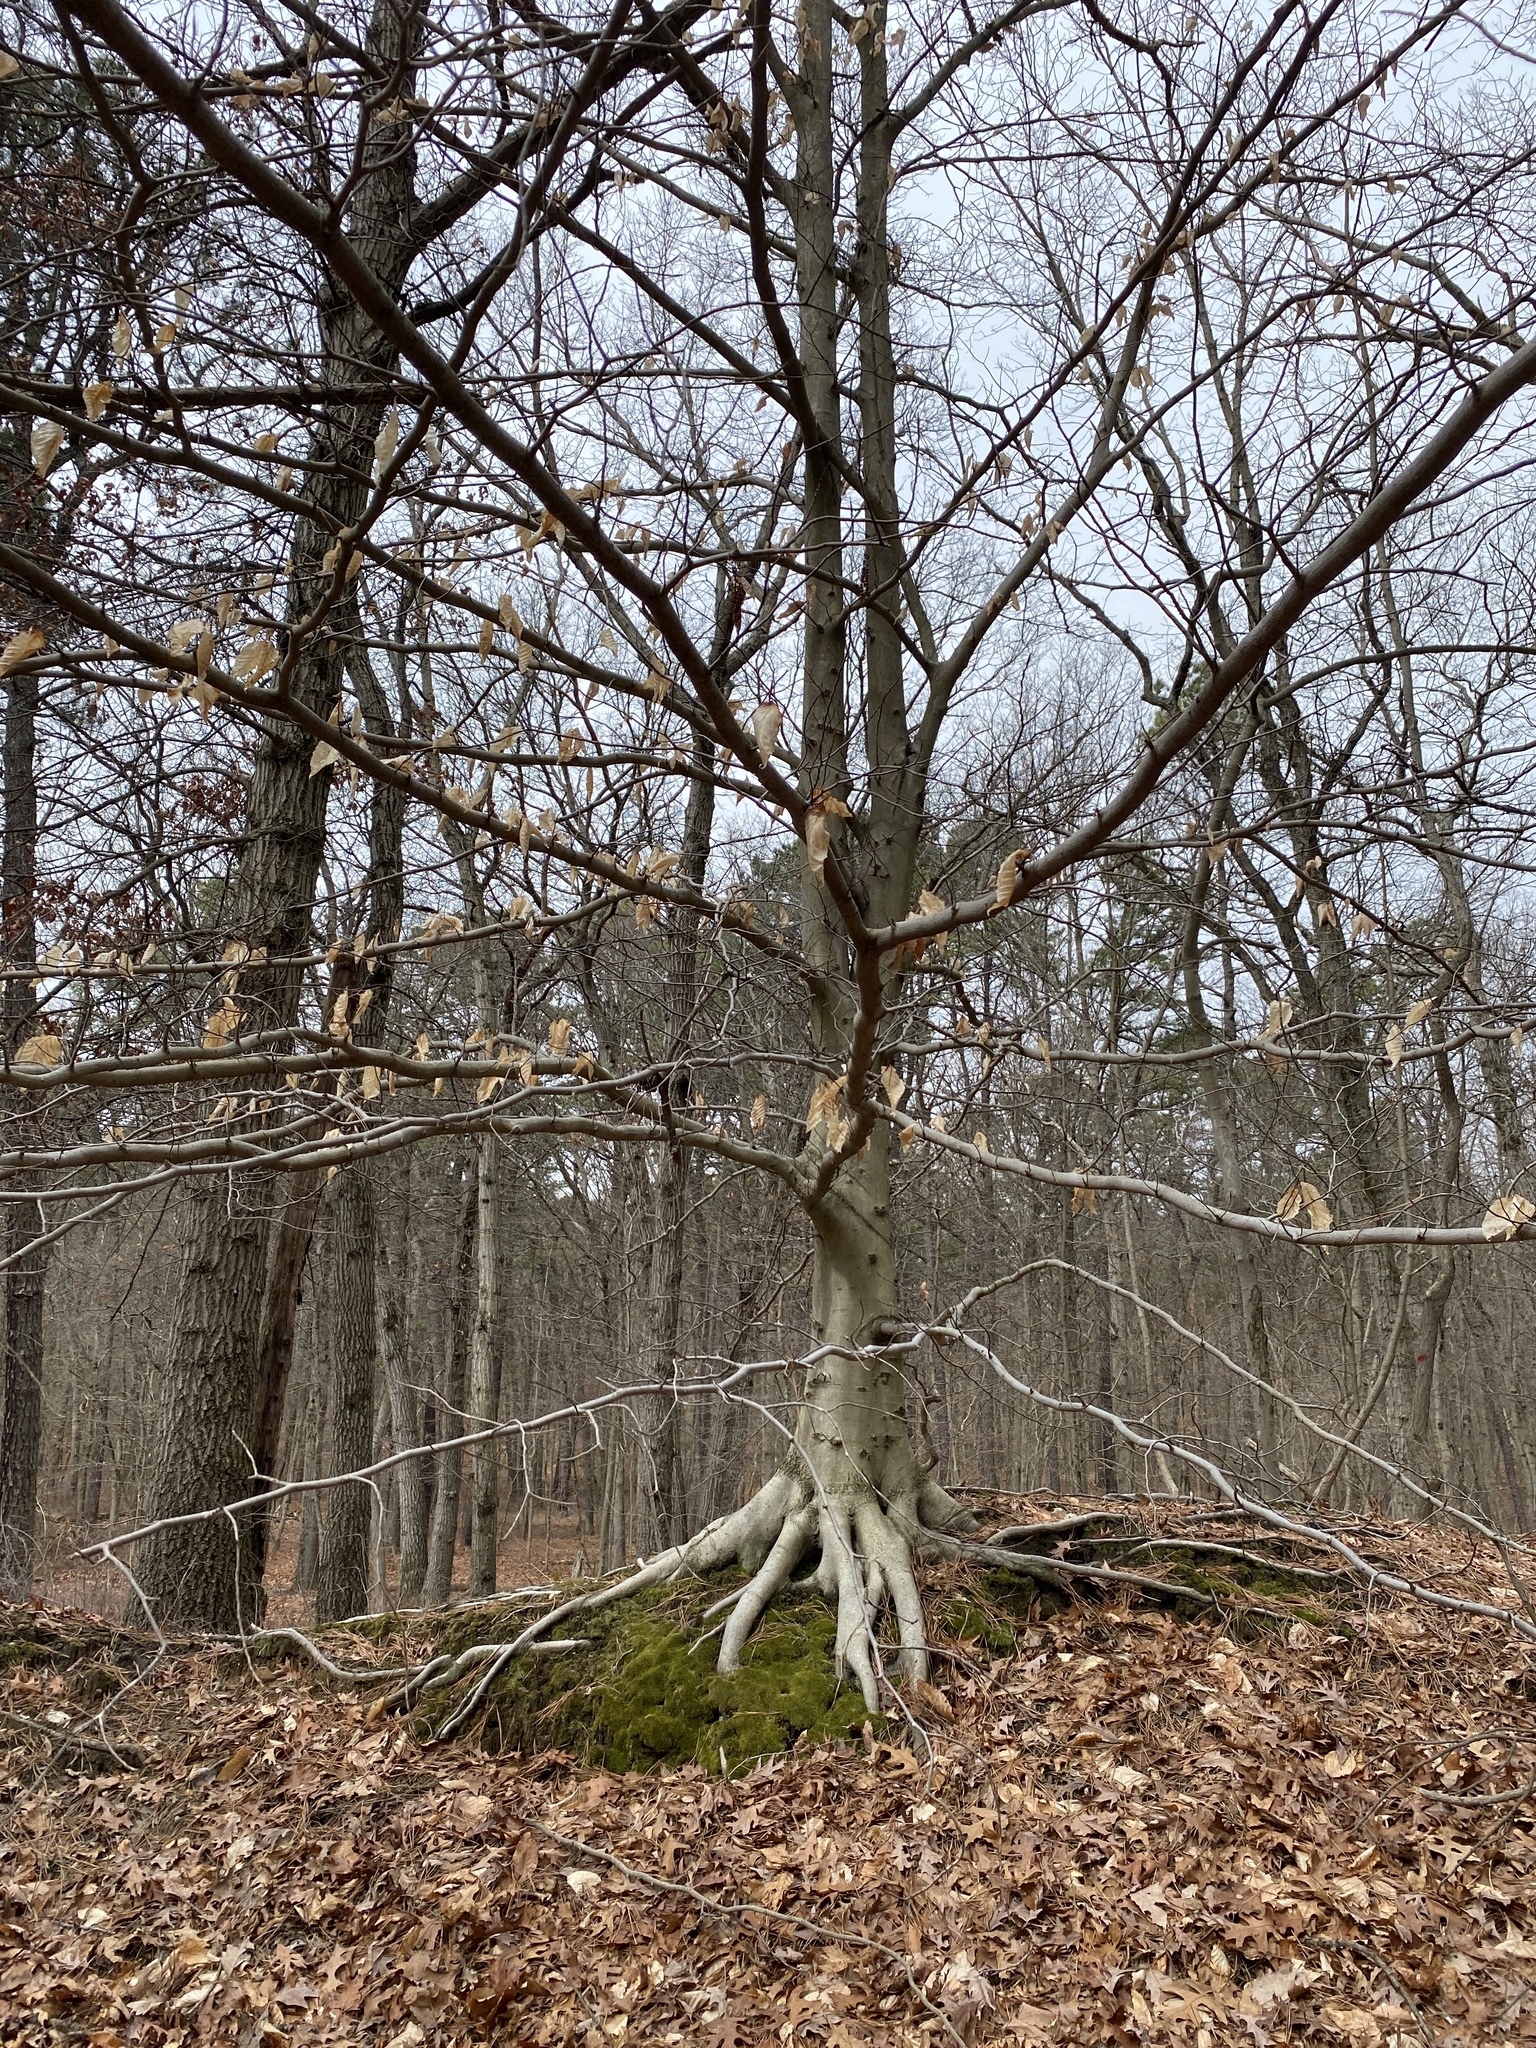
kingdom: Plantae
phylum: Tracheophyta
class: Magnoliopsida
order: Fagales
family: Fagaceae
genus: Fagus
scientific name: Fagus grandifolia
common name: American beech
